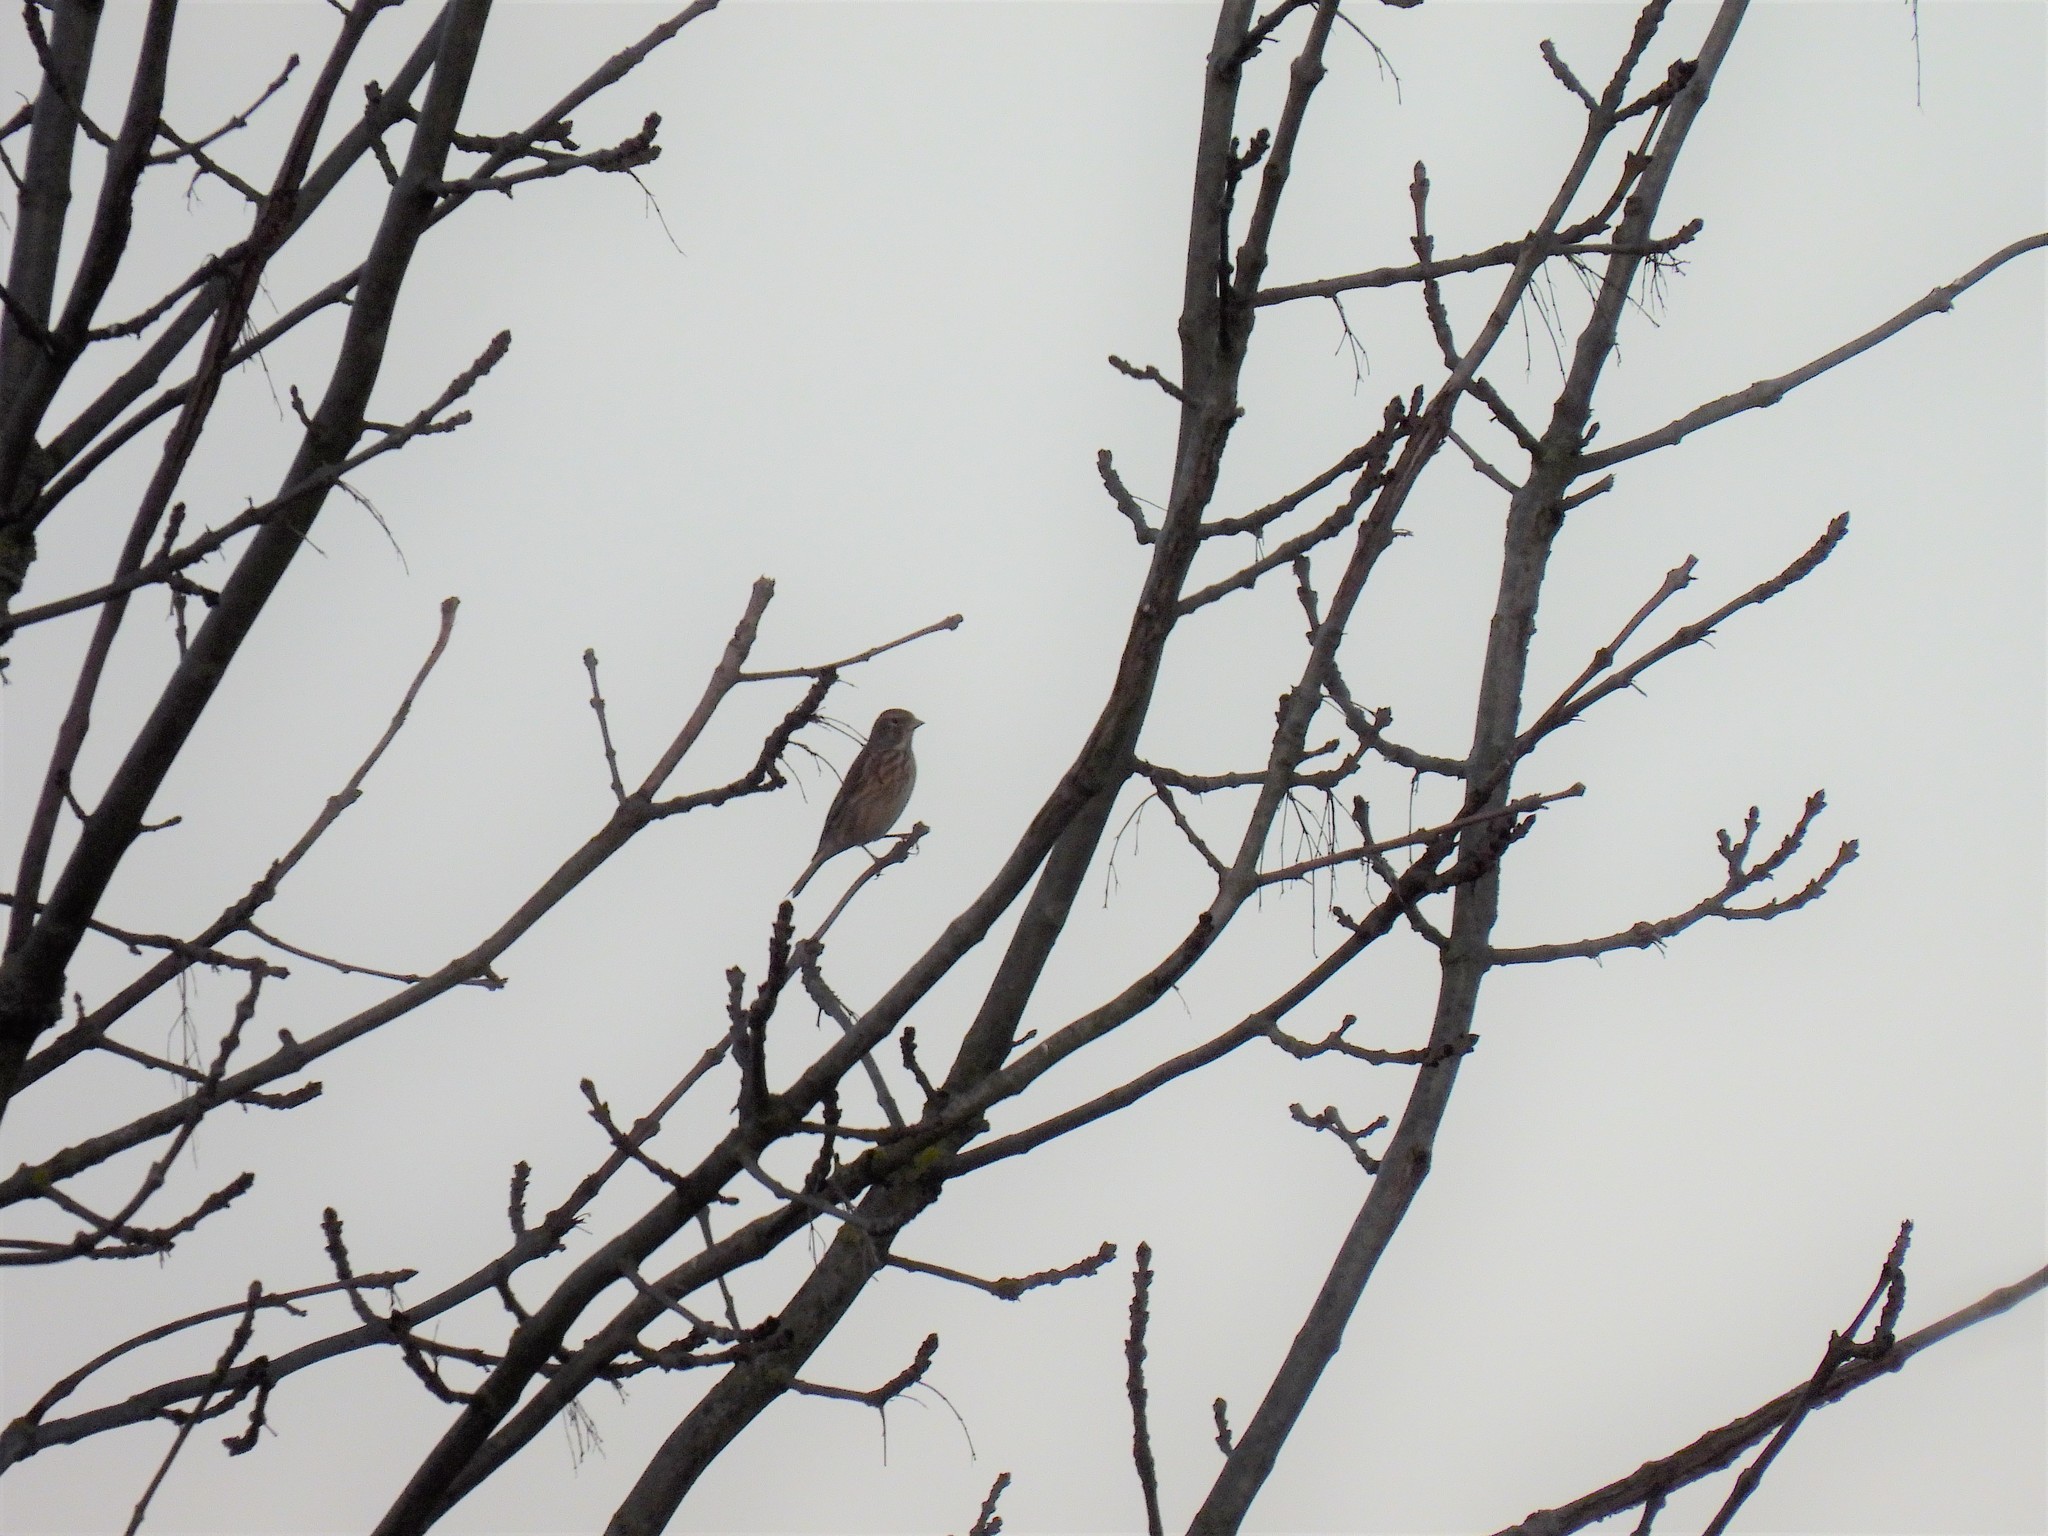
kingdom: Animalia
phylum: Chordata
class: Aves
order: Passeriformes
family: Fringillidae
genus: Linaria
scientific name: Linaria cannabina
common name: Common linnet
